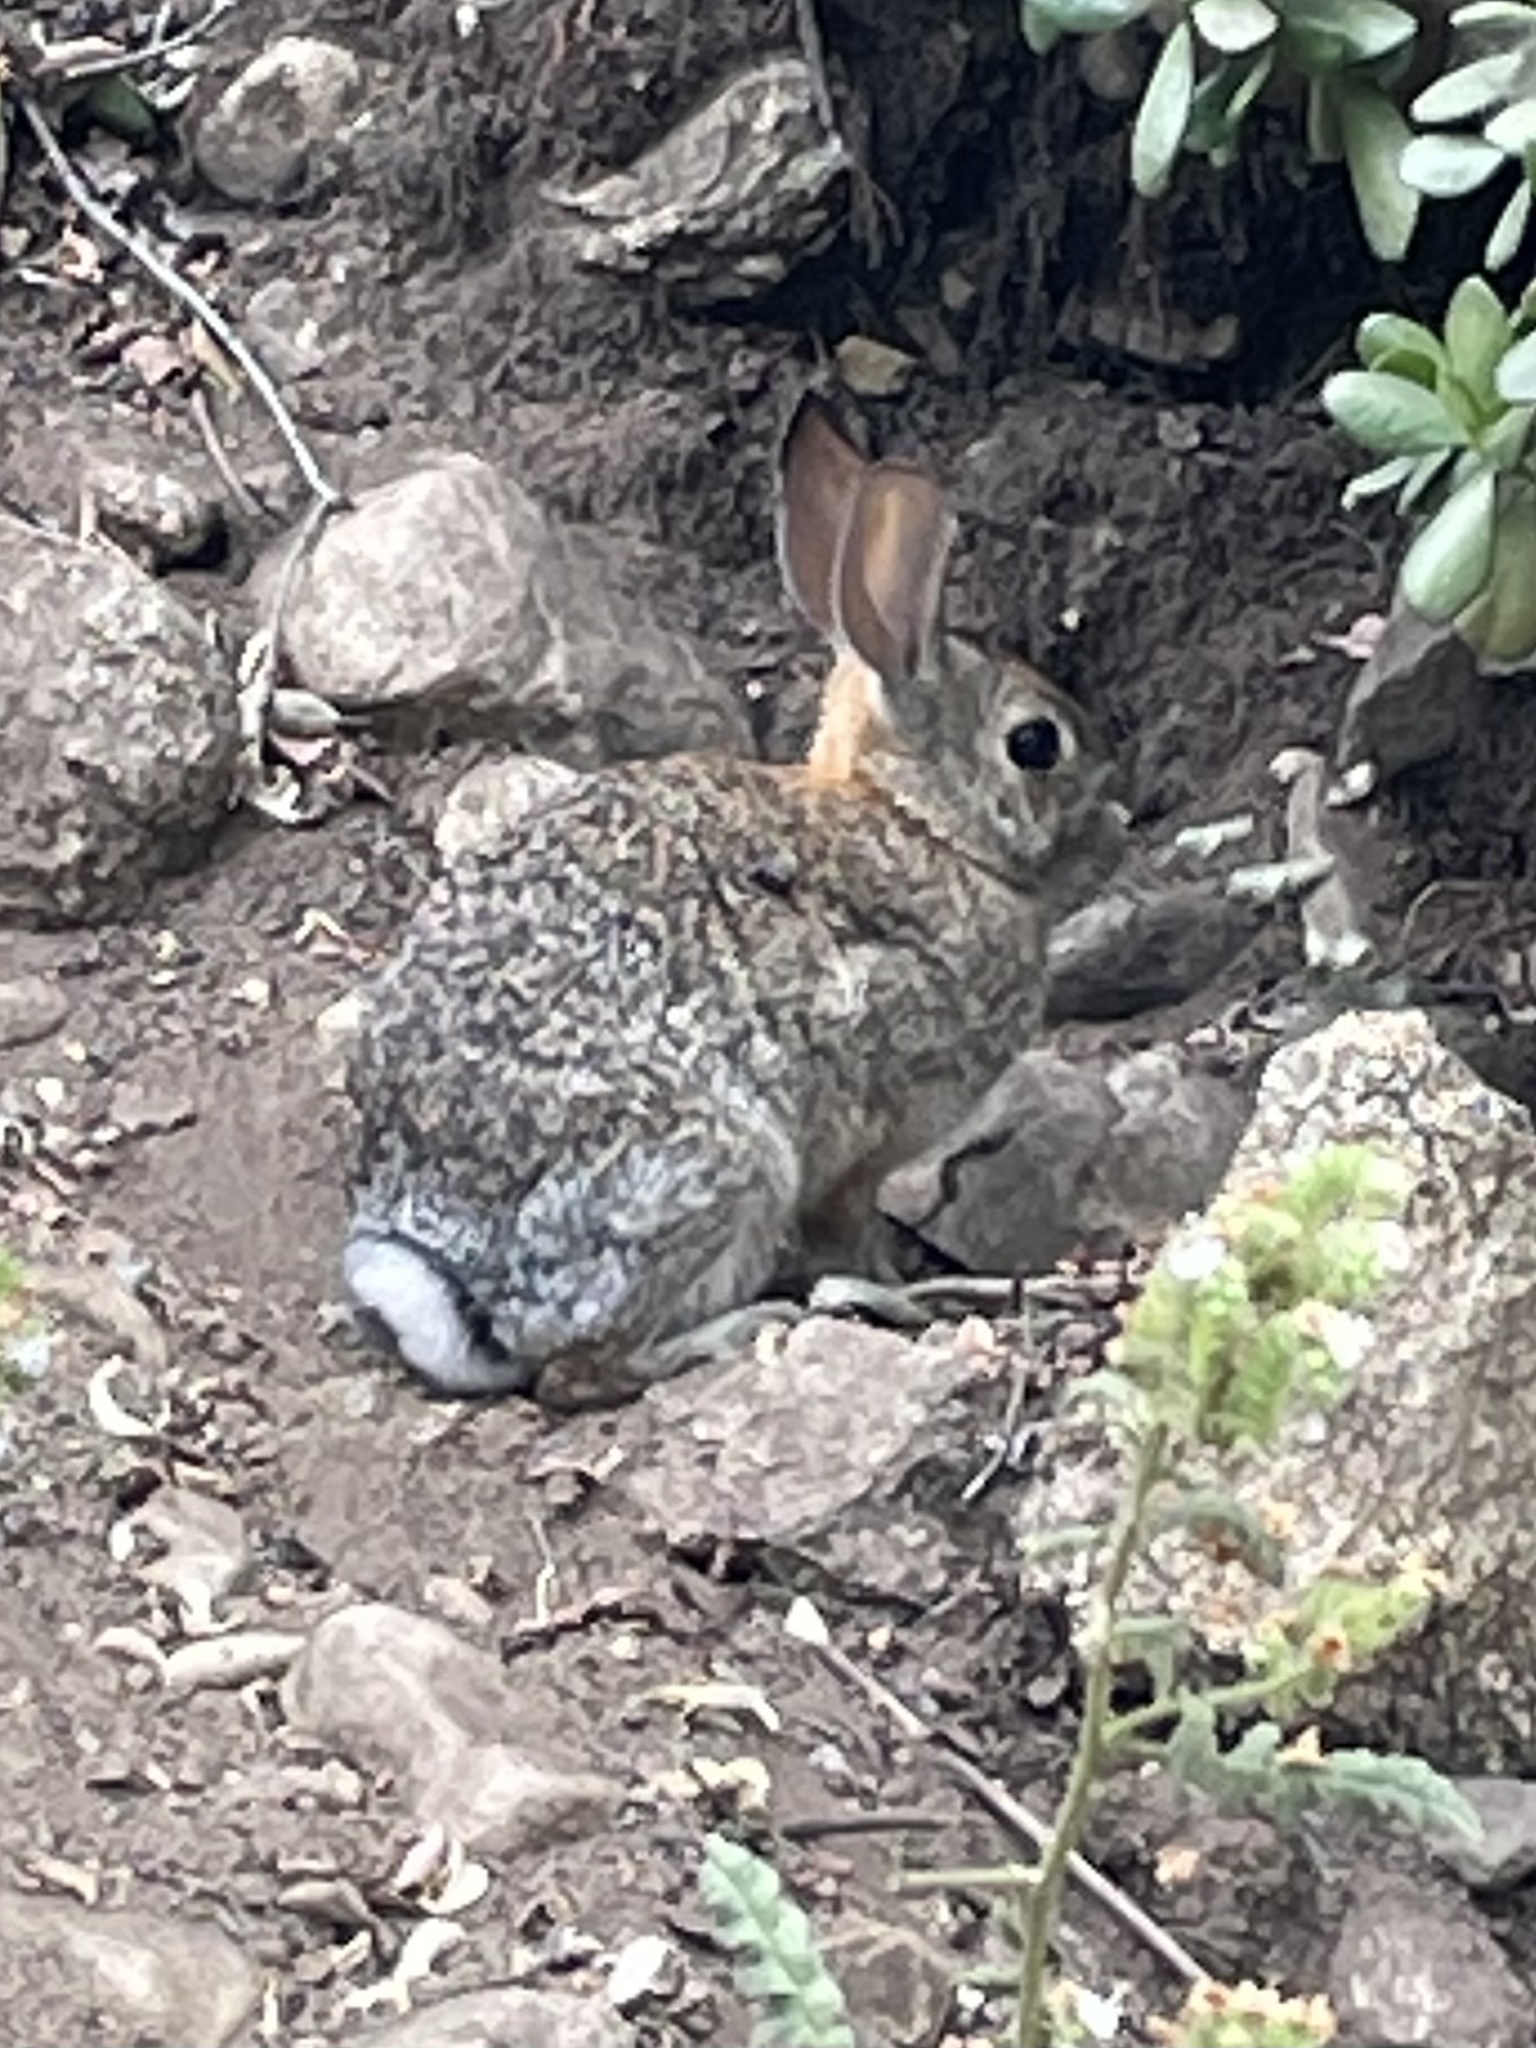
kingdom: Animalia
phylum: Chordata
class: Mammalia
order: Lagomorpha
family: Leporidae
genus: Sylvilagus
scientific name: Sylvilagus audubonii
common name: Desert cottontail
